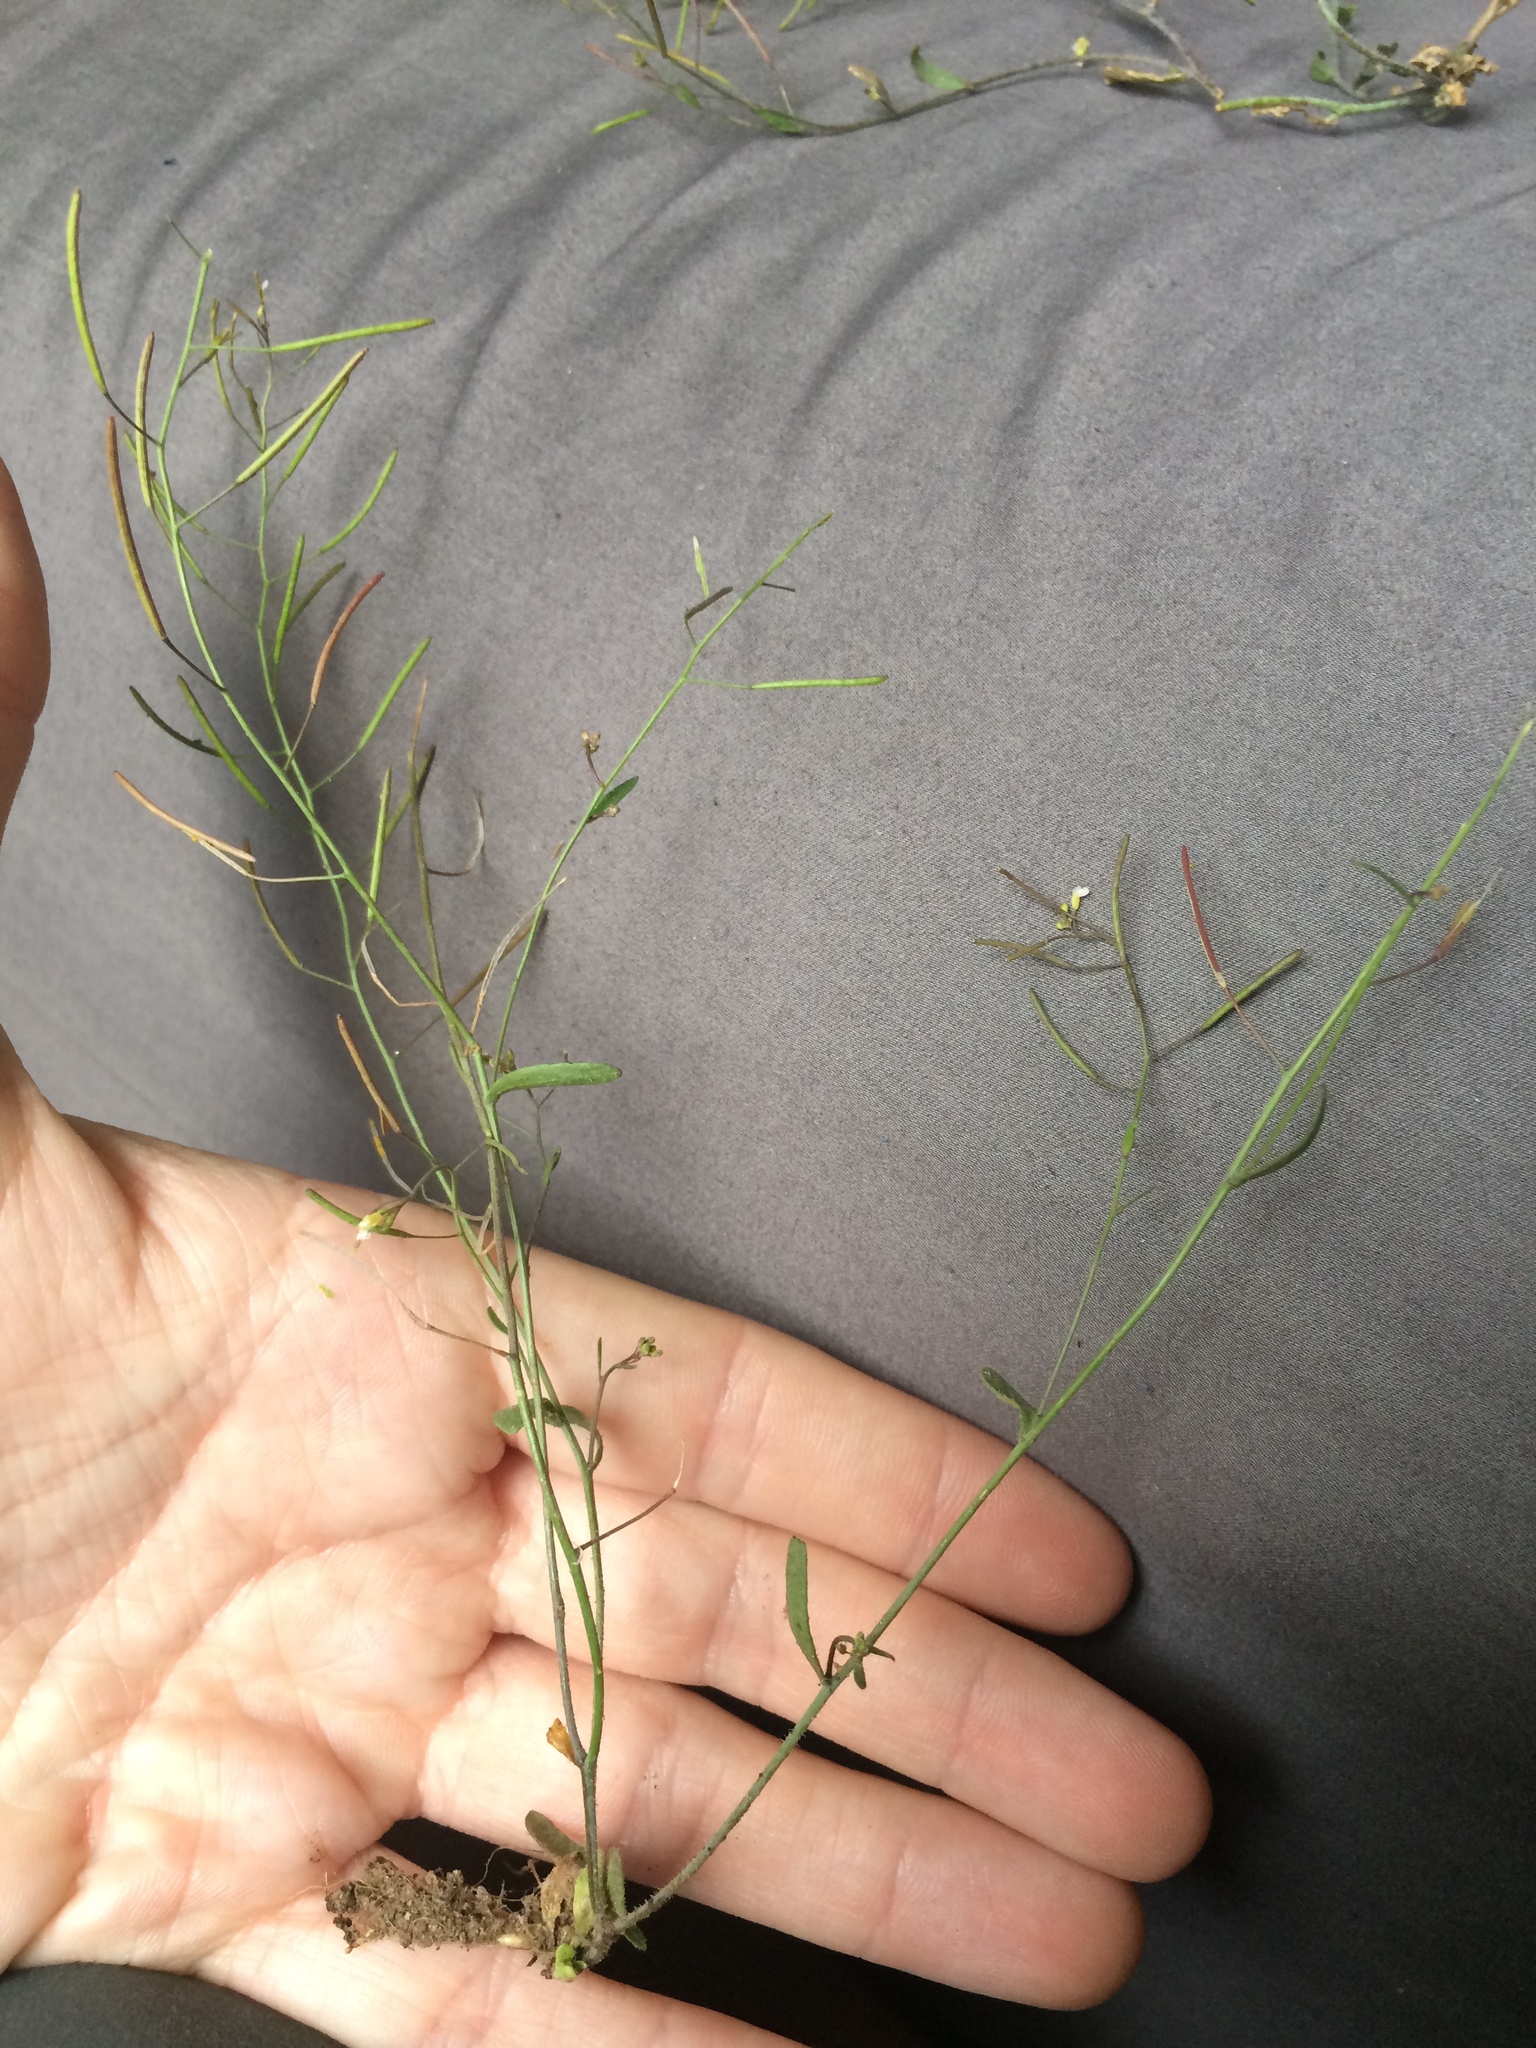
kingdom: Plantae
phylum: Tracheophyta
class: Magnoliopsida
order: Brassicales
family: Brassicaceae
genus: Arabidopsis
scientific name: Arabidopsis thaliana
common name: Thale cress
